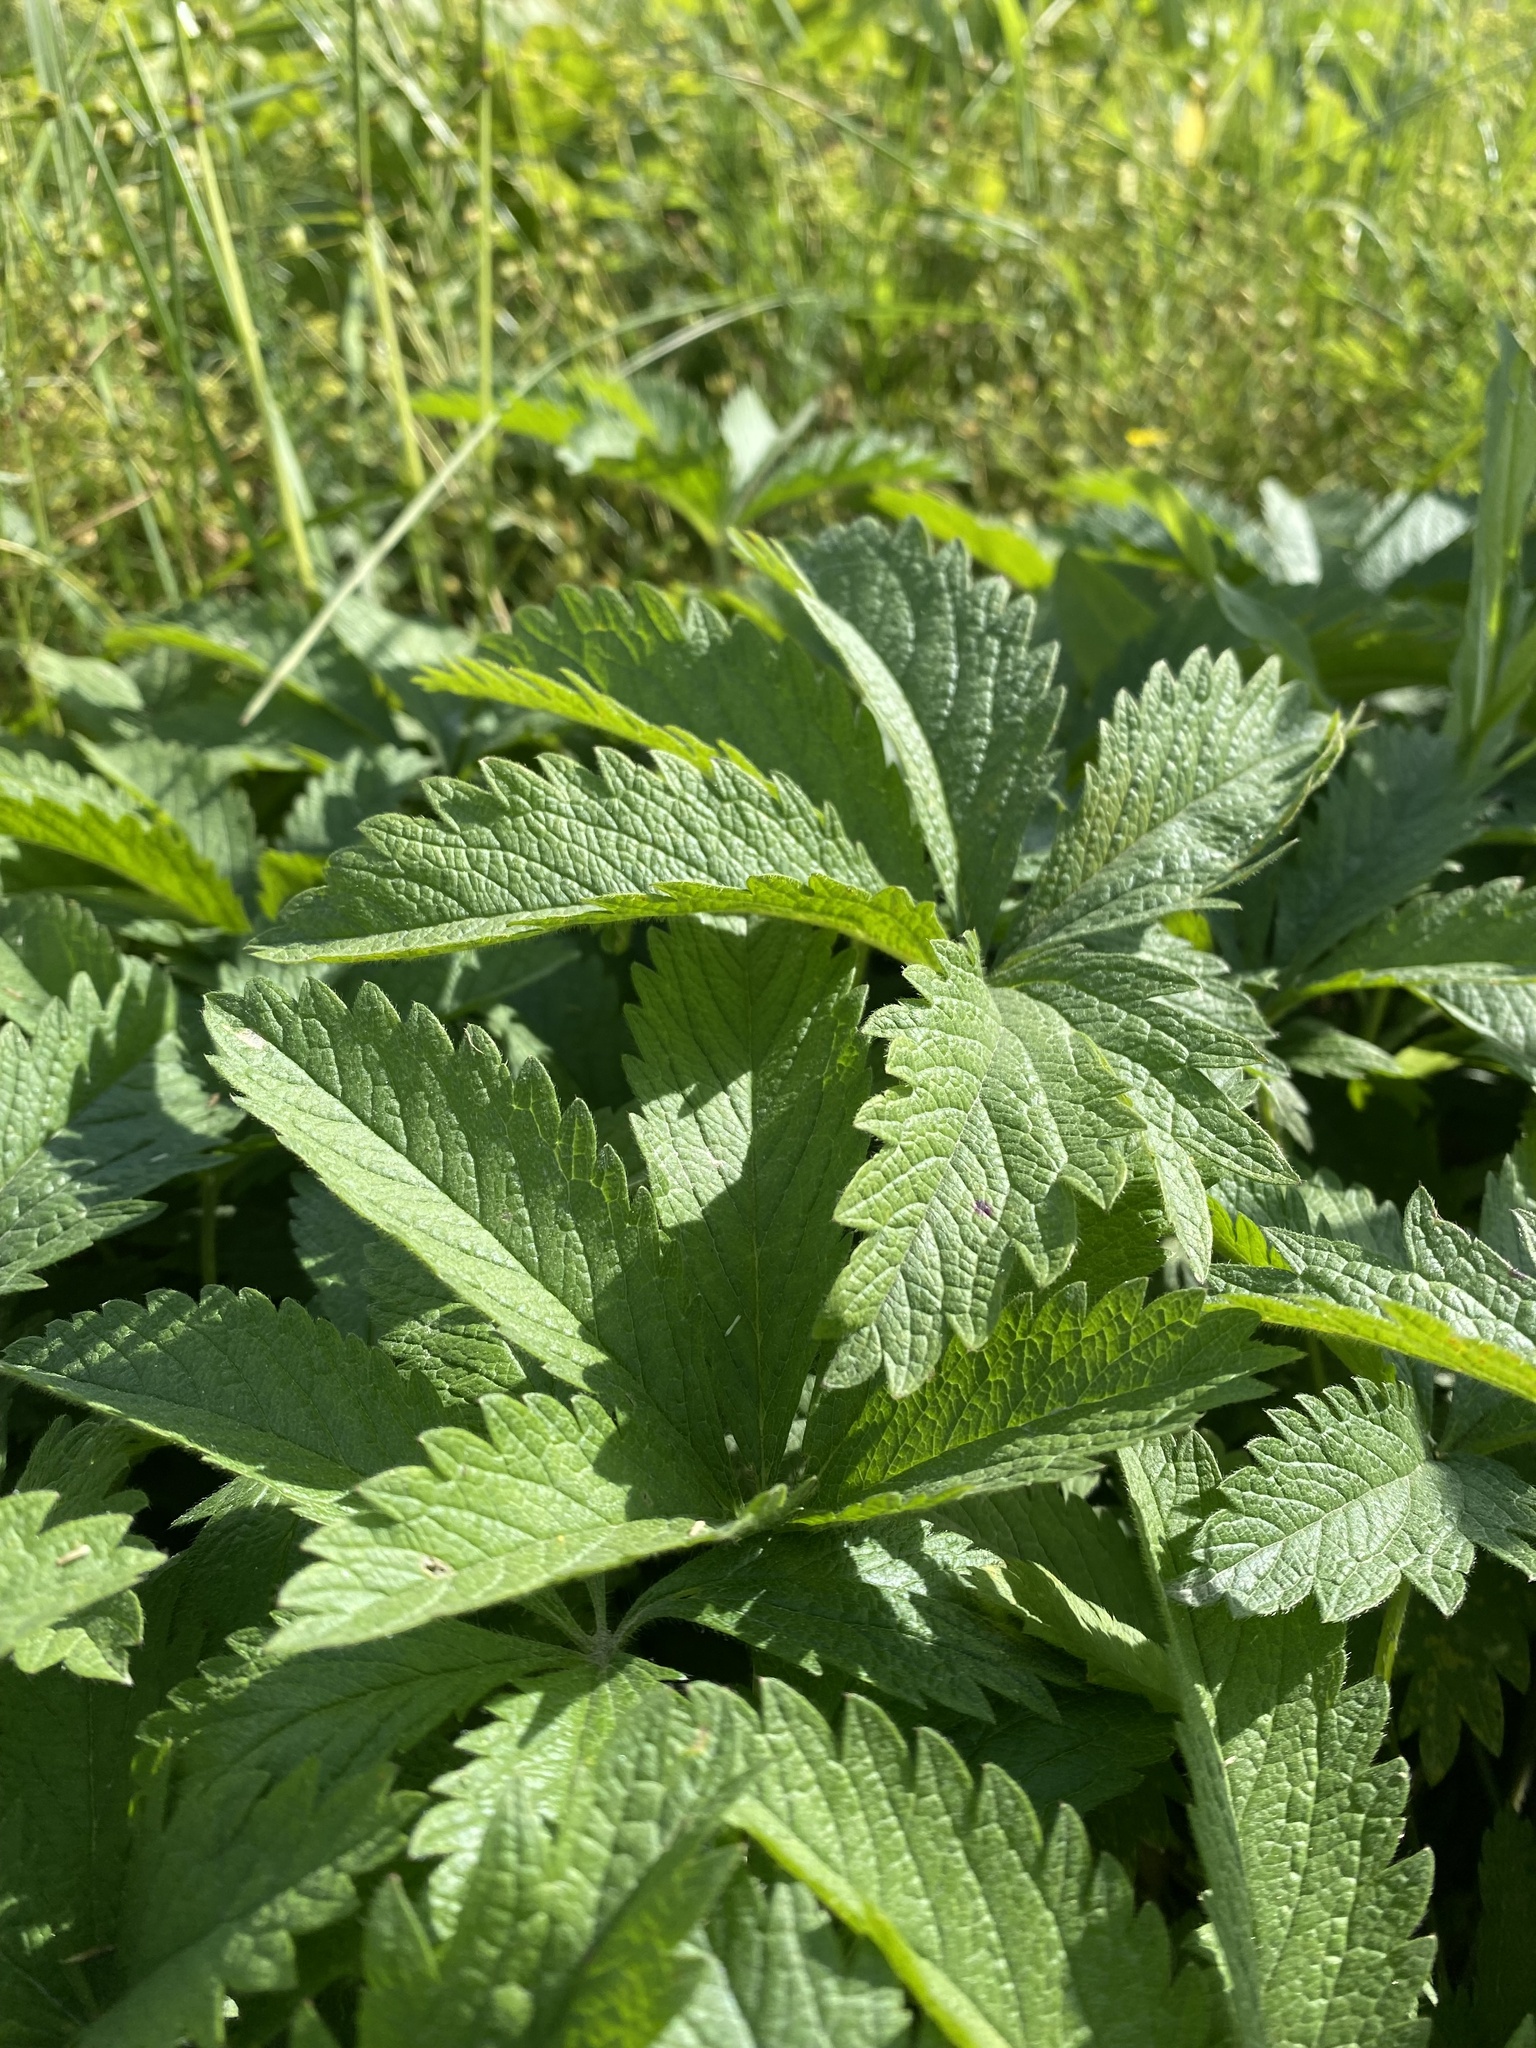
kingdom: Plantae
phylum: Tracheophyta
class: Magnoliopsida
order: Rosales
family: Rosaceae
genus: Potentilla
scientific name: Potentilla chrysantha
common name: Thuringian cinquefoil
